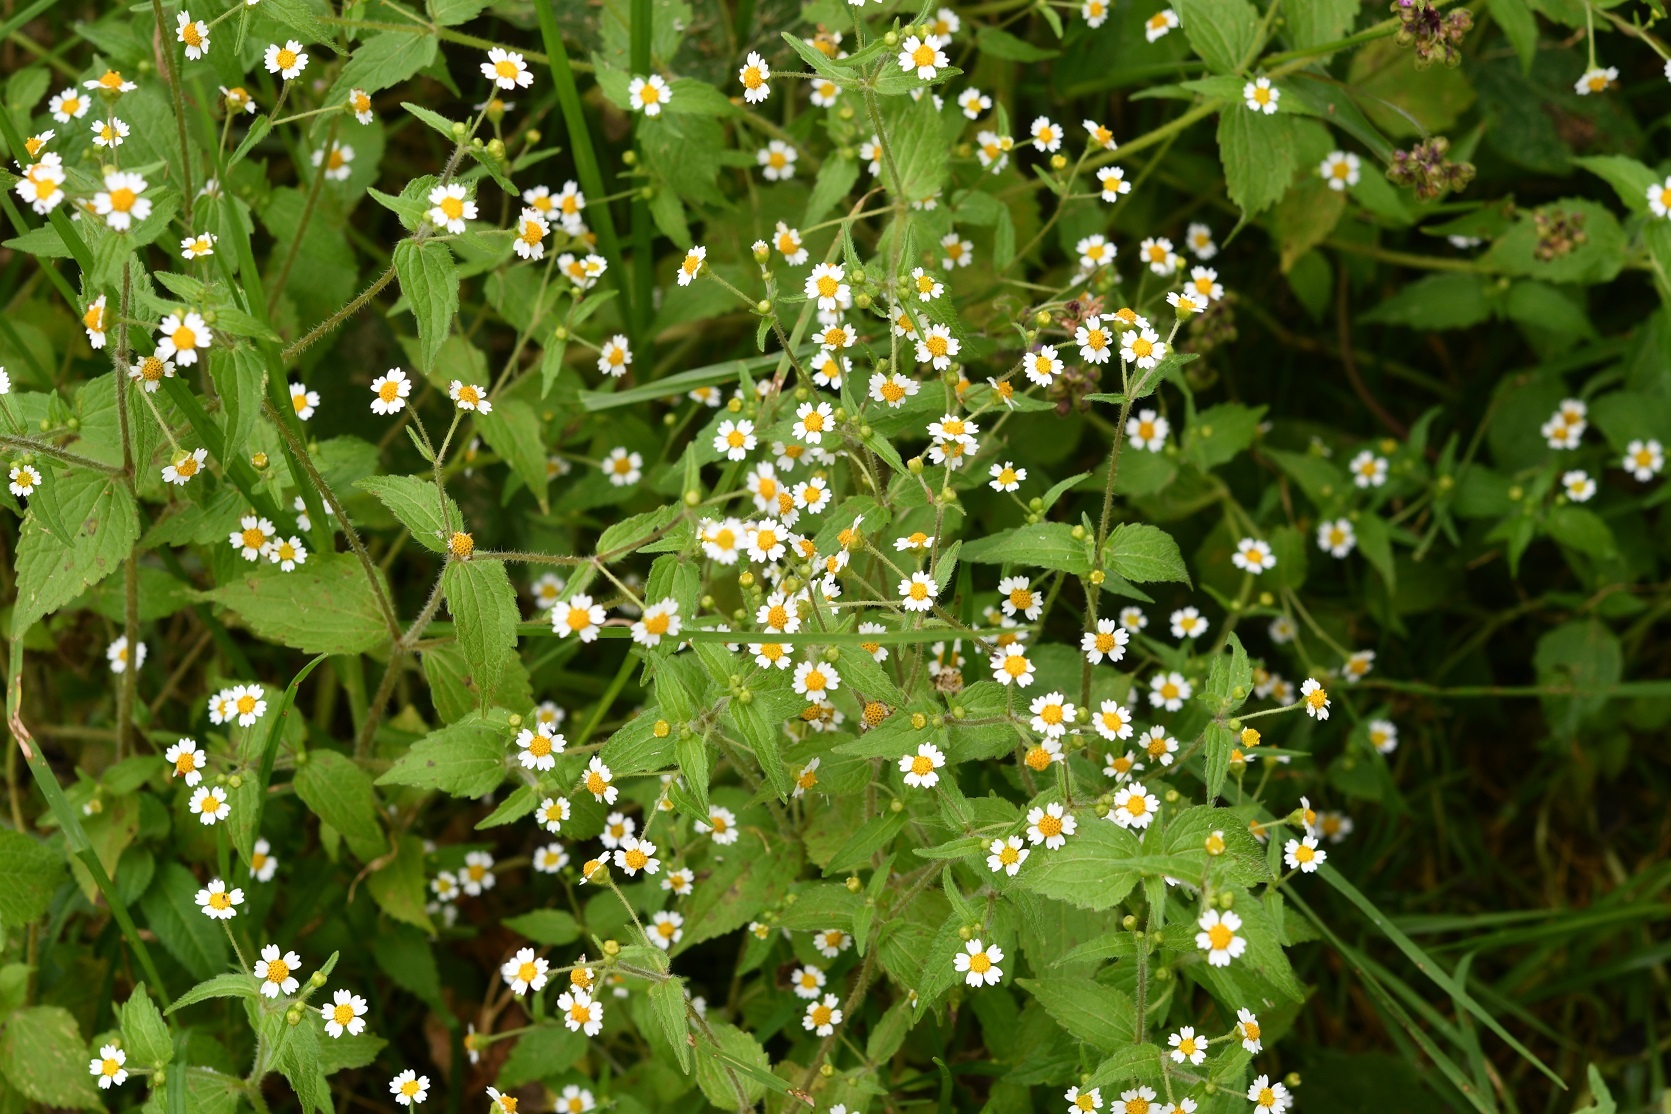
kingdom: Plantae
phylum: Tracheophyta
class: Magnoliopsida
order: Asterales
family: Asteraceae
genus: Galinsoga
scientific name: Galinsoga quadriradiata
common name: Shaggy soldier
